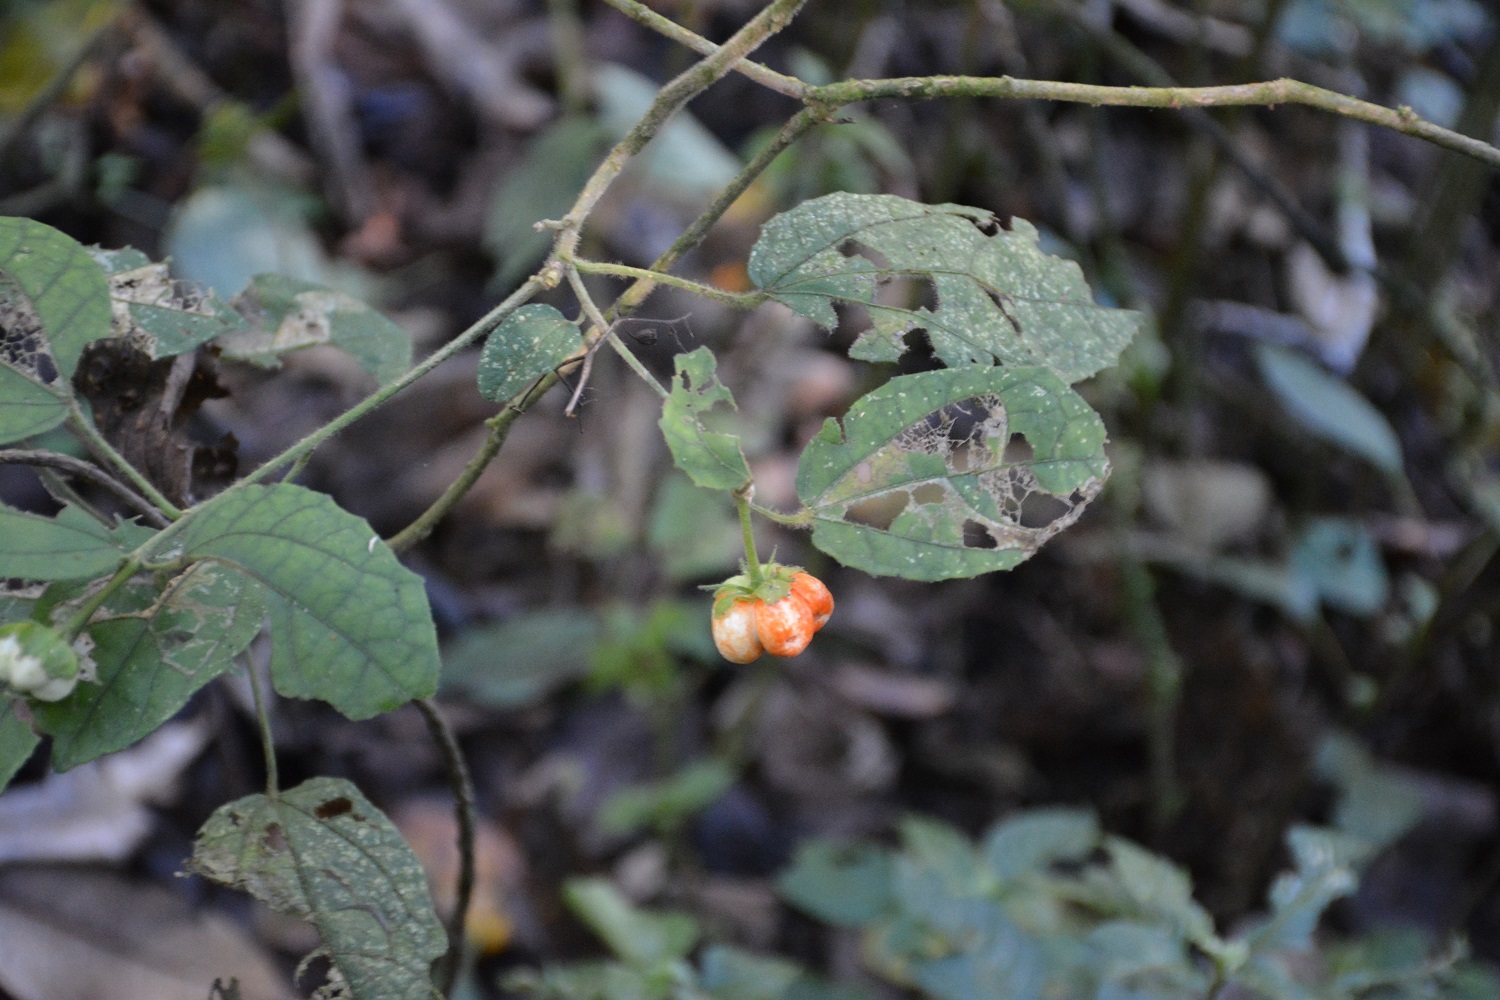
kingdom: Plantae
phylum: Tracheophyta
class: Magnoliopsida
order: Malvales
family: Malvaceae
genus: Malvaviscus
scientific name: Malvaviscus arboreus
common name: Wax mallow
